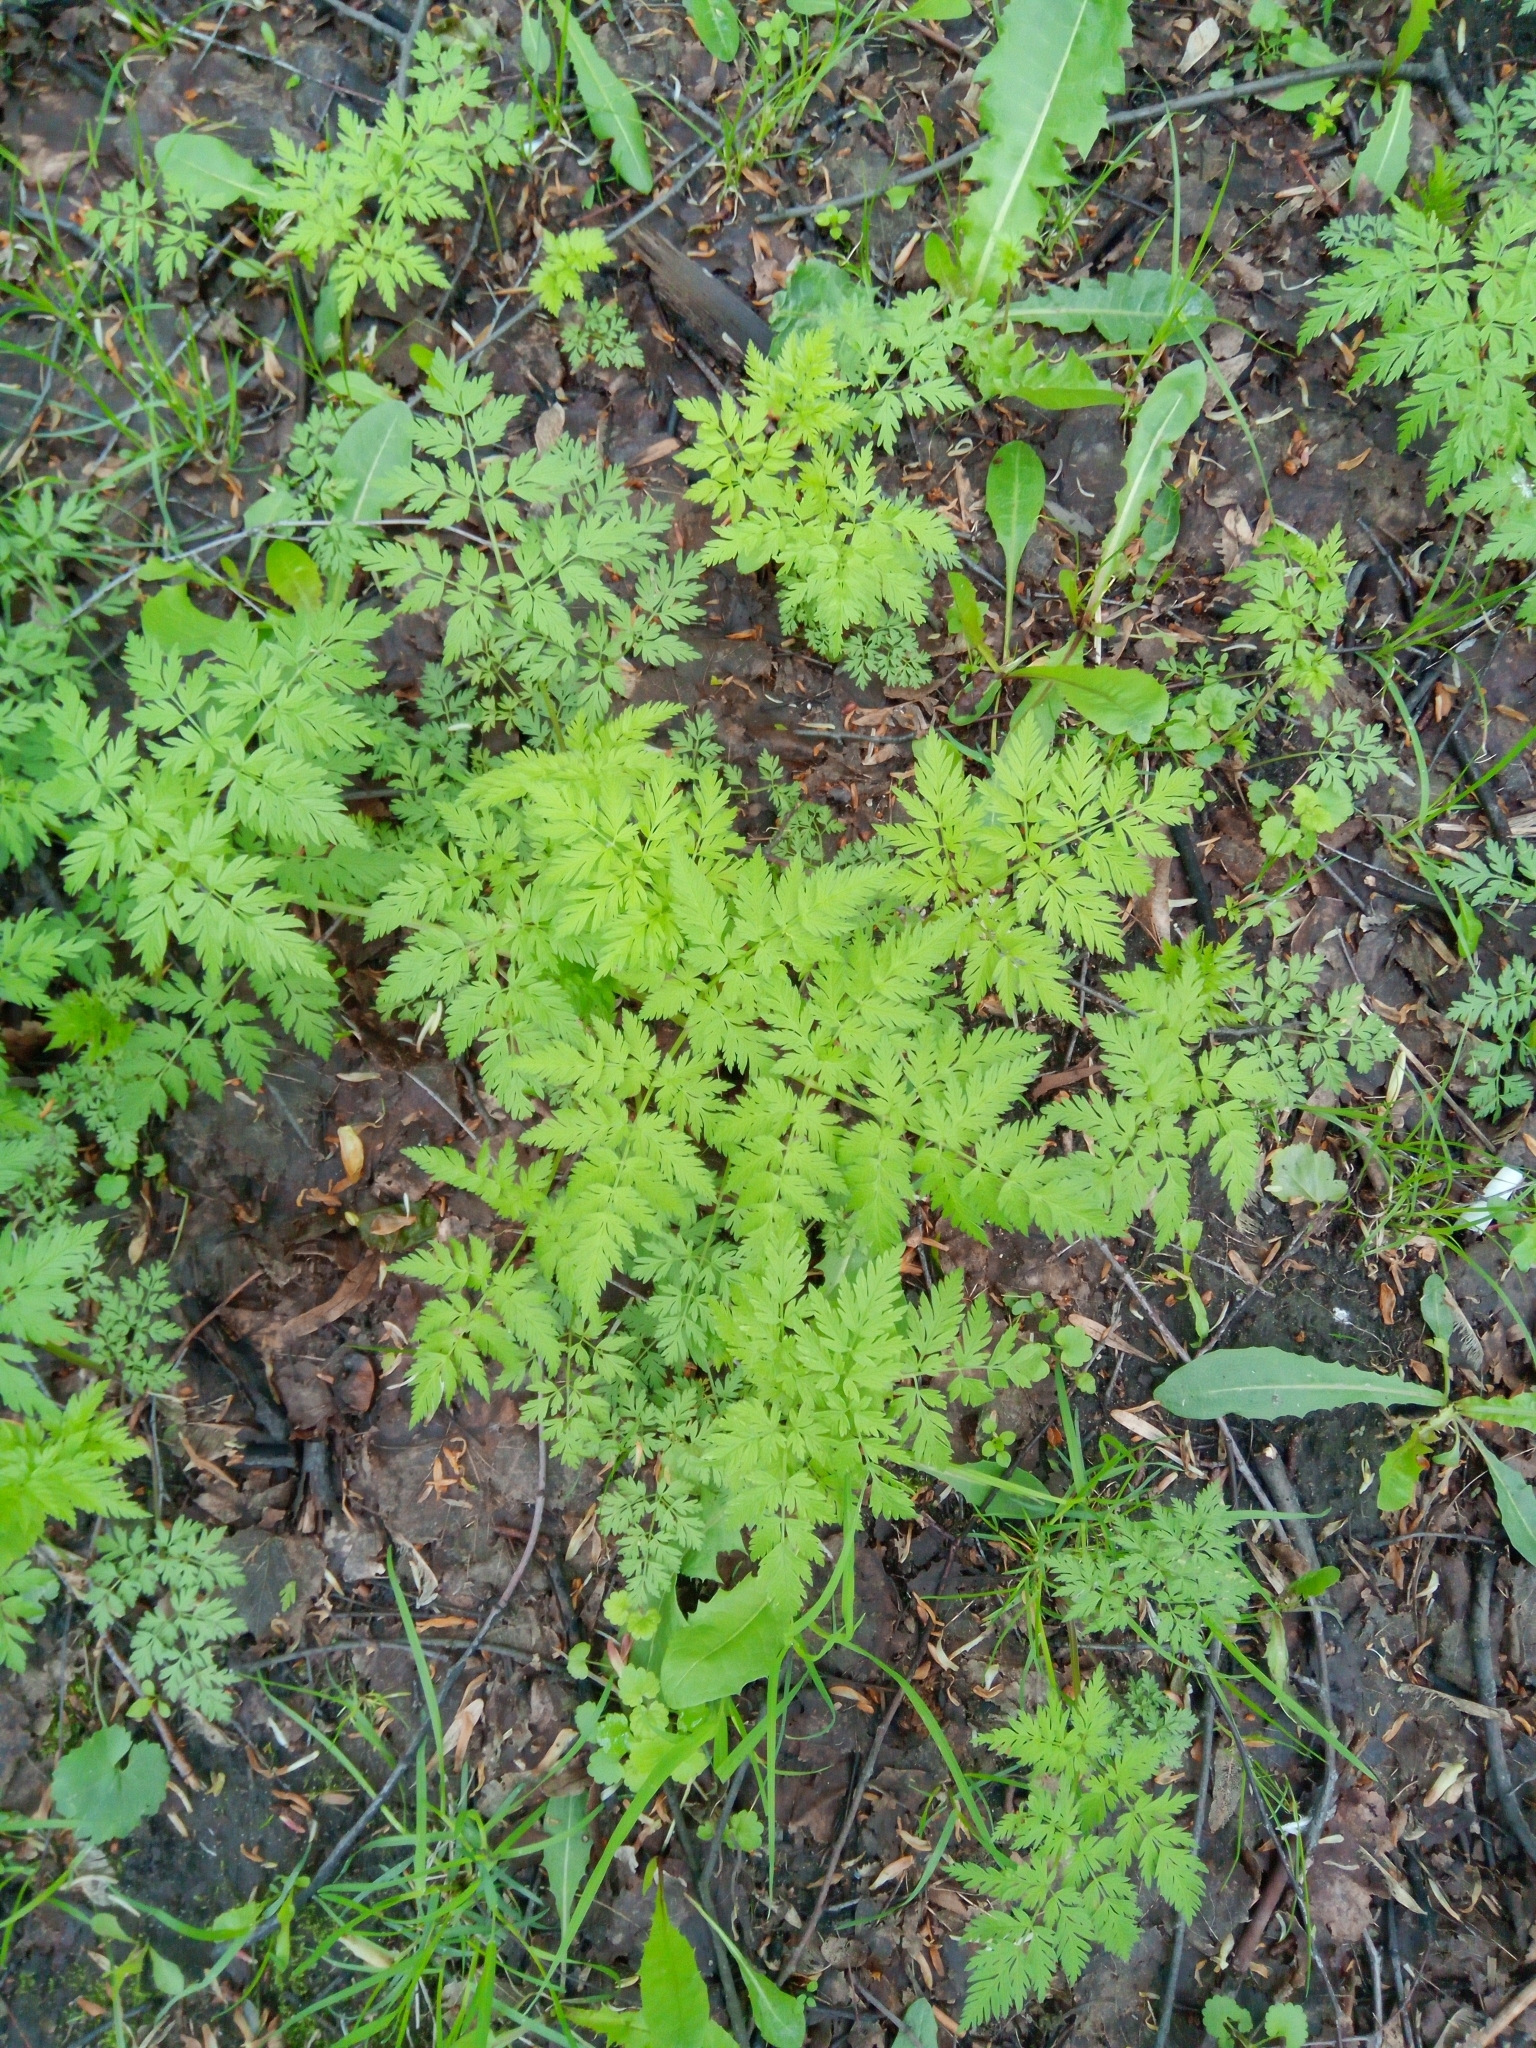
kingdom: Plantae
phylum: Tracheophyta
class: Magnoliopsida
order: Apiales
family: Apiaceae
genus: Anthriscus
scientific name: Anthriscus sylvestris
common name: Cow parsley
